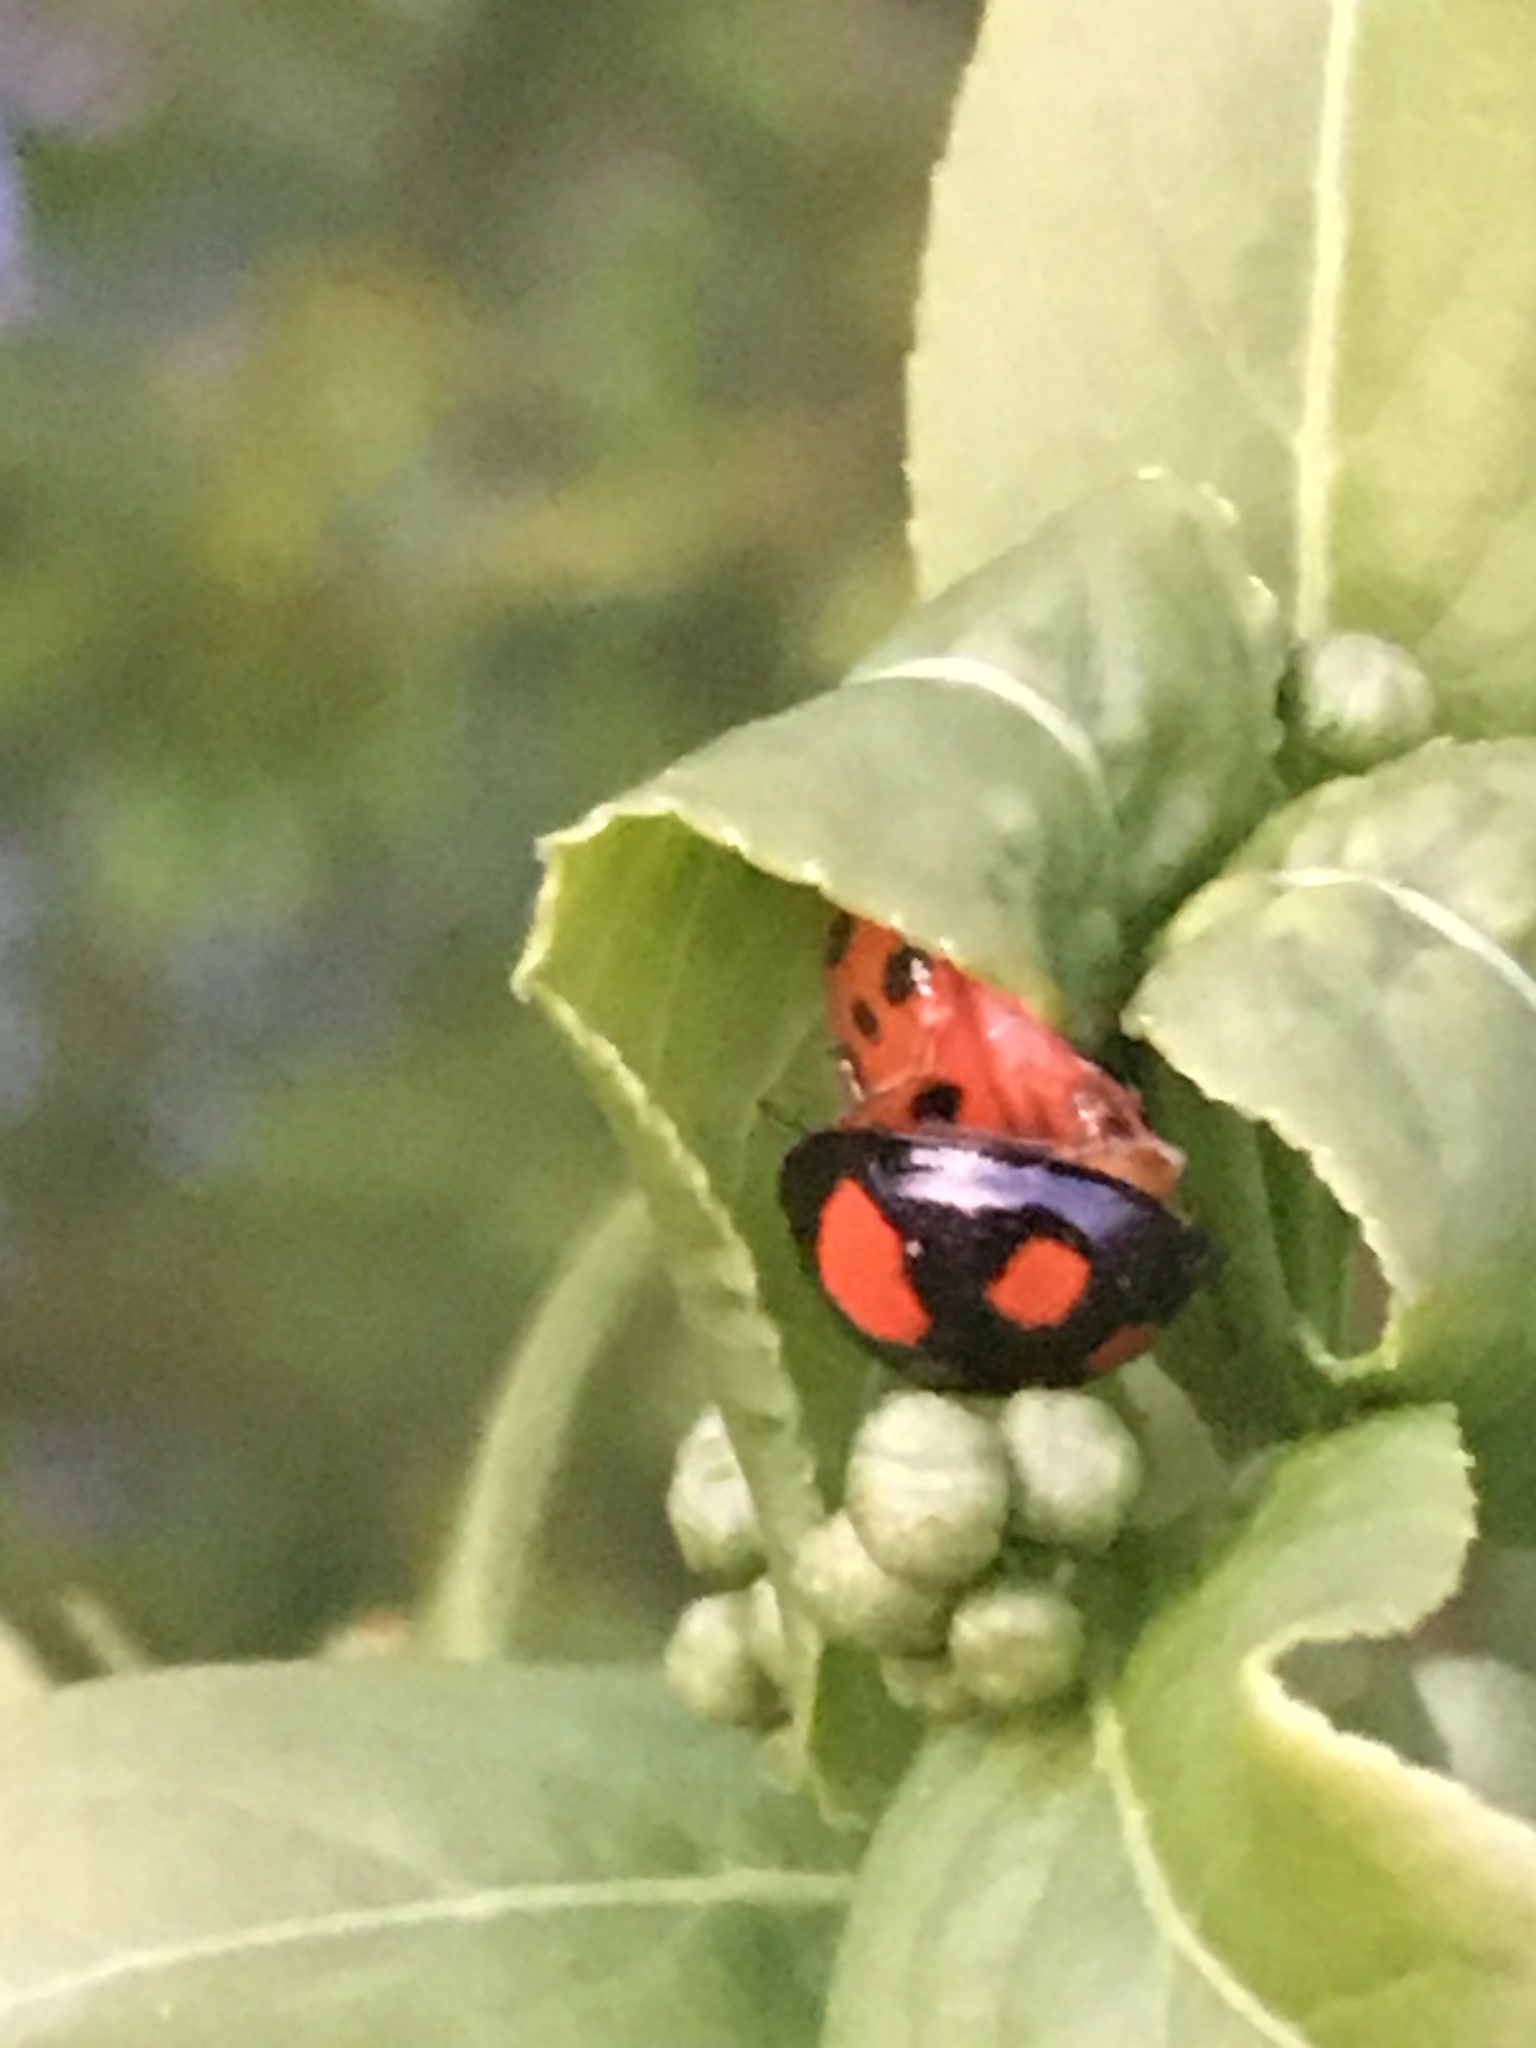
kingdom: Animalia
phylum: Arthropoda
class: Insecta
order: Coleoptera
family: Coccinellidae
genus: Harmonia
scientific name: Harmonia axyridis
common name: Harlequin ladybird
